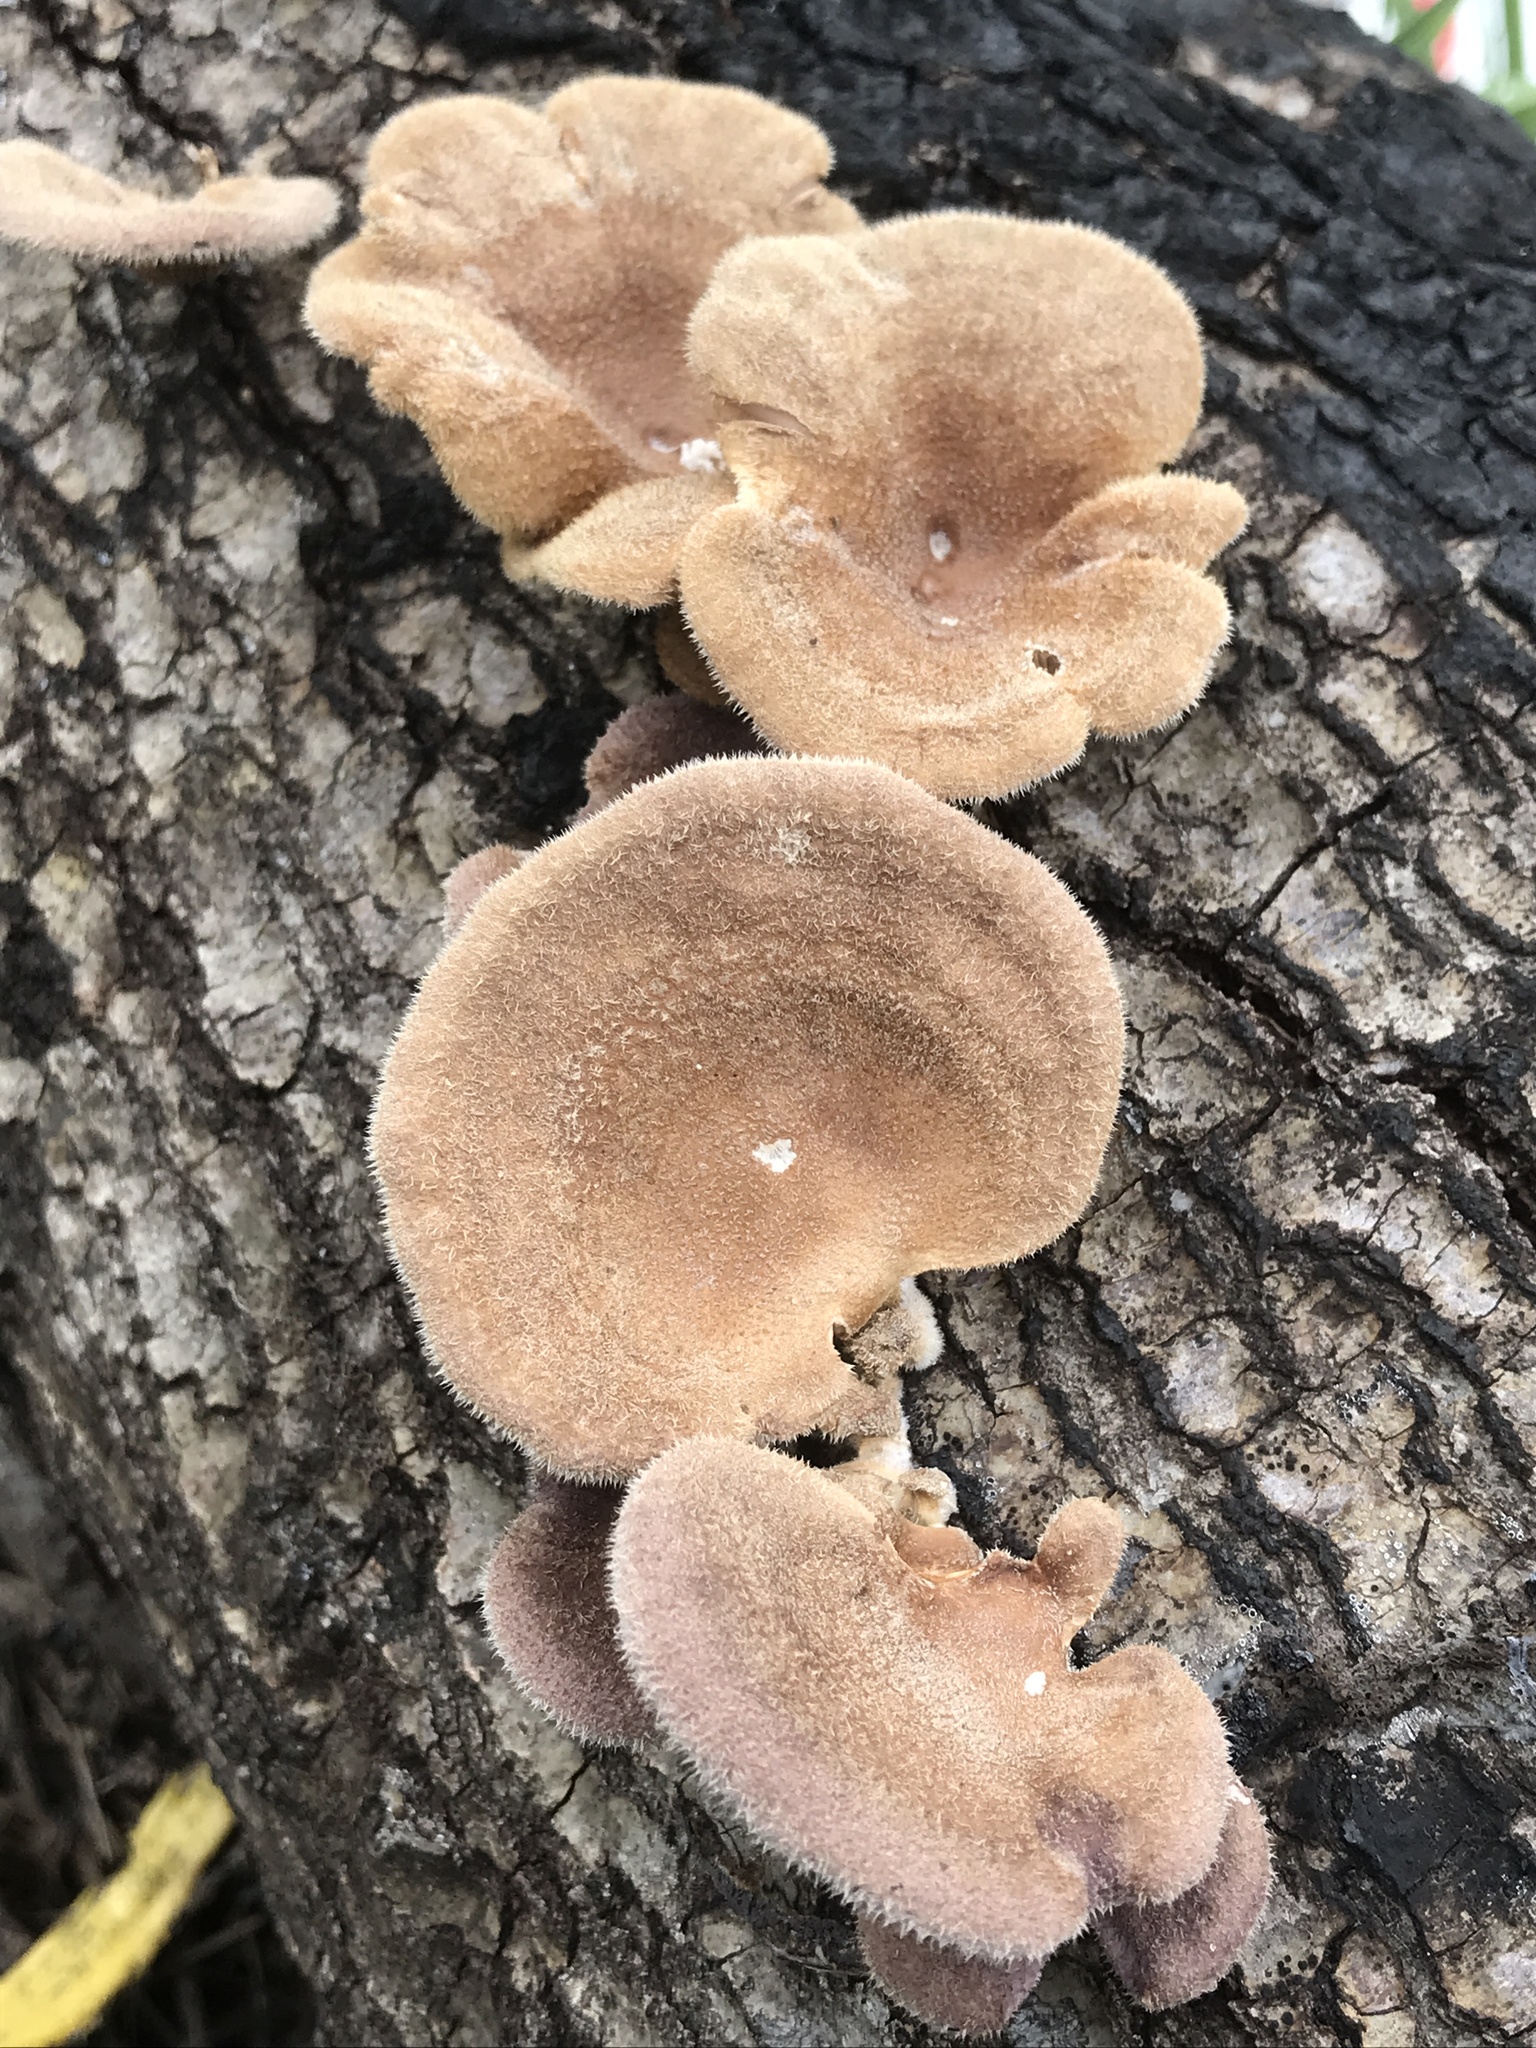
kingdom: Fungi
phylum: Basidiomycota
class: Agaricomycetes
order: Polyporales
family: Panaceae
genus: Panus
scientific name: Panus neostrigosus
